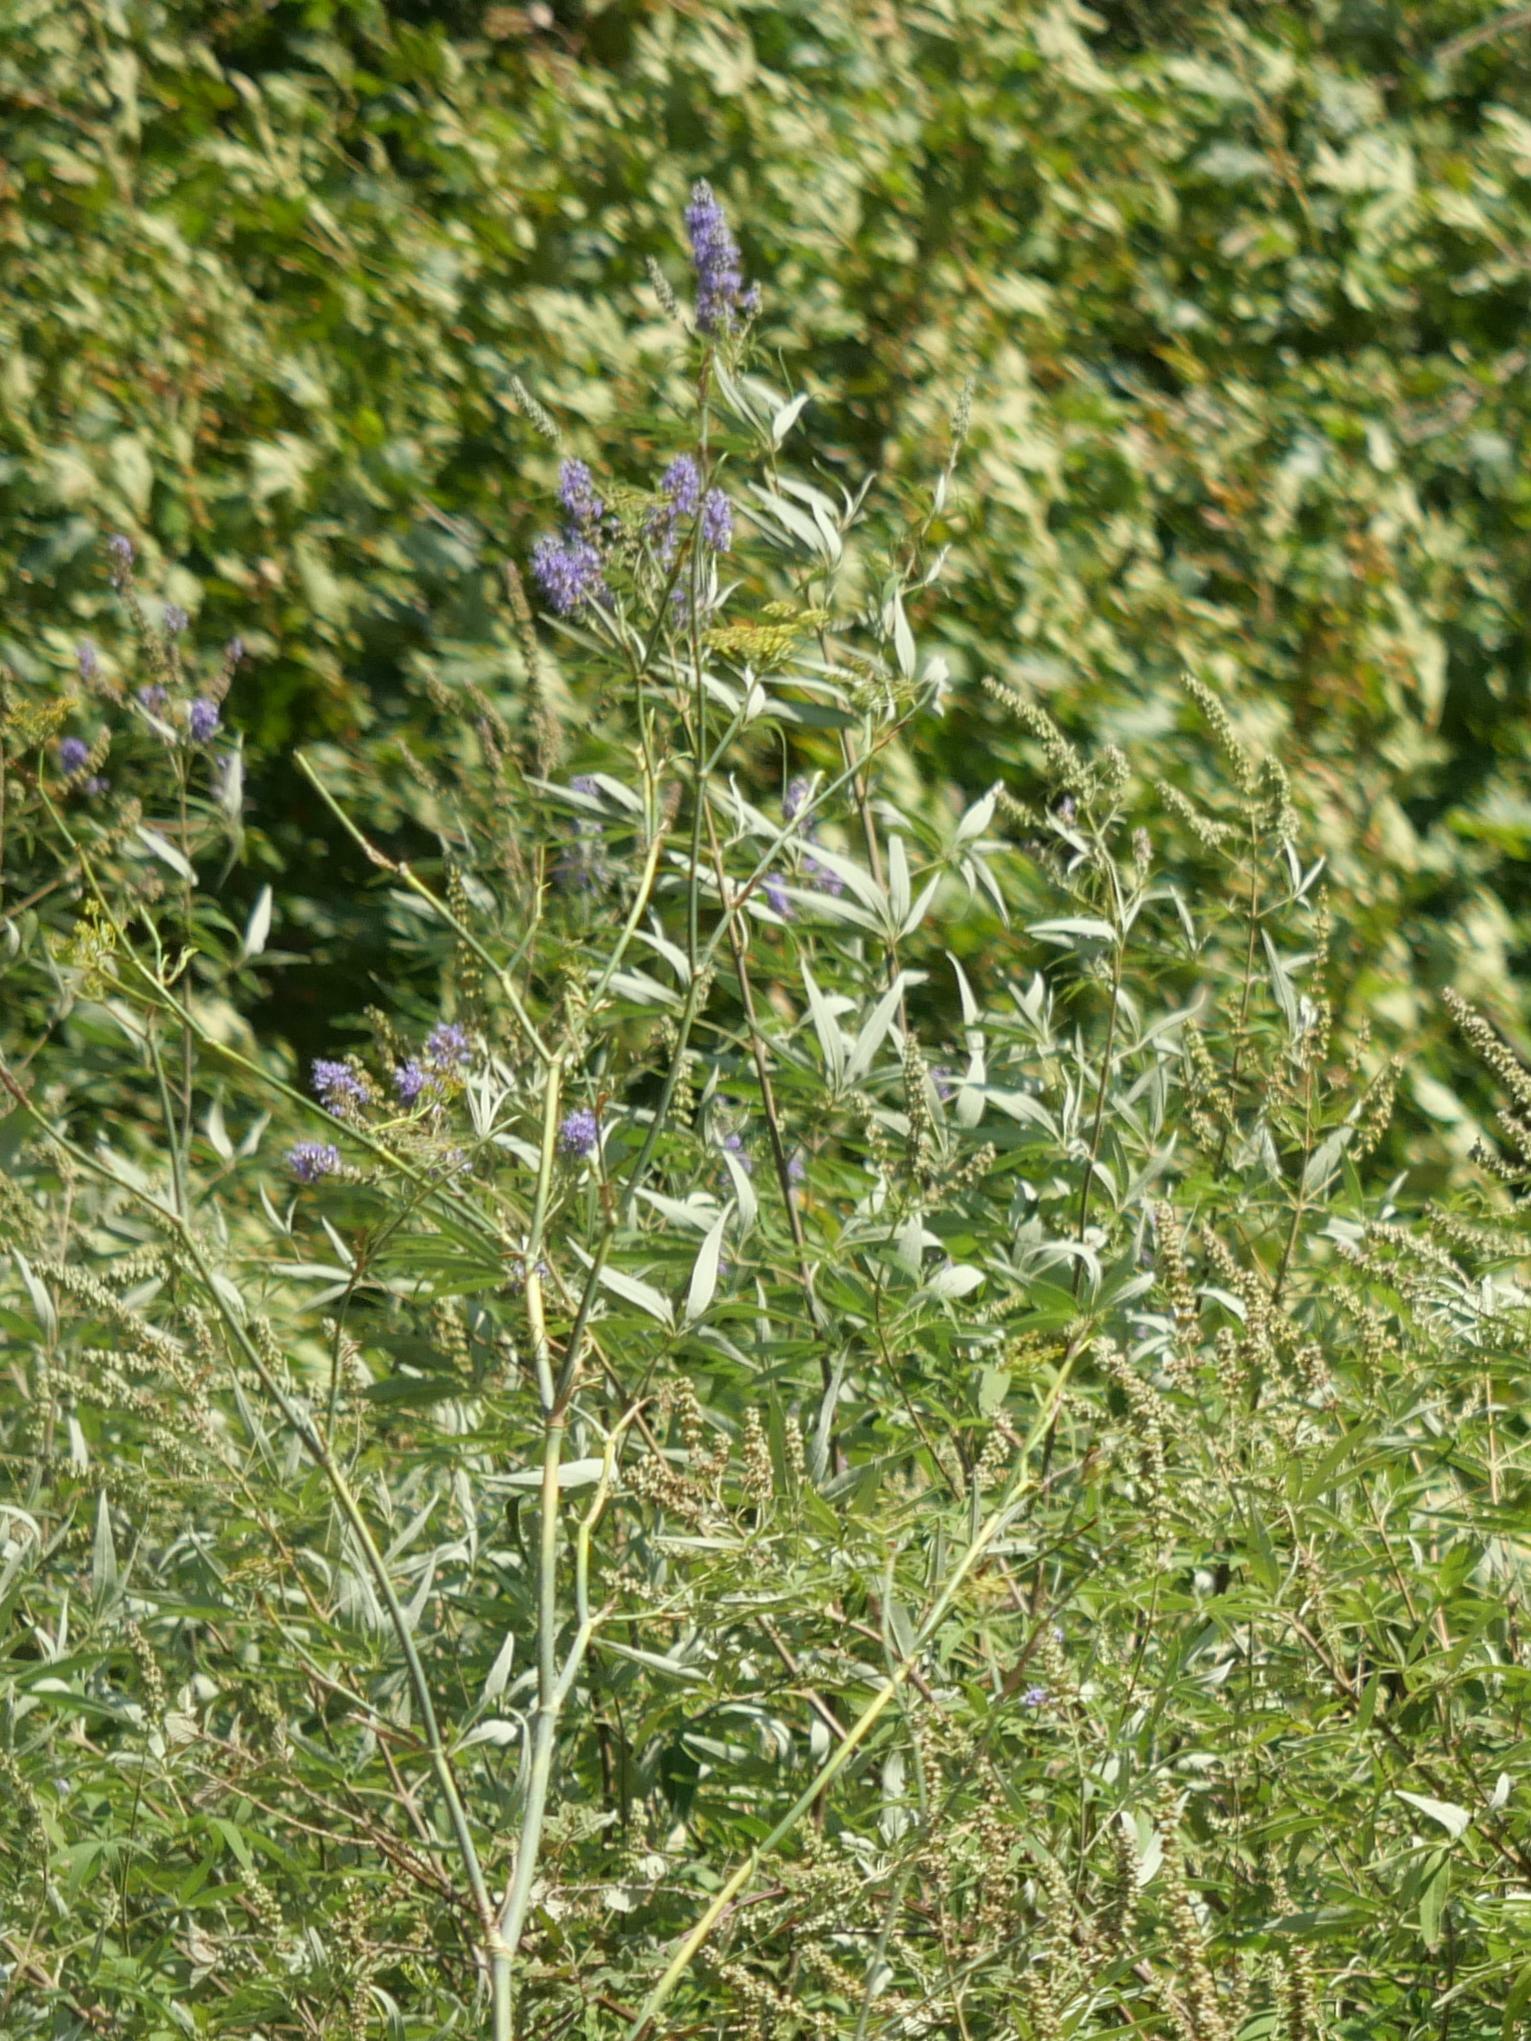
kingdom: Plantae
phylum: Tracheophyta
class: Magnoliopsida
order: Lamiales
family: Lamiaceae
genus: Vitex
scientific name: Vitex agnus-castus
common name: Chasteberry
